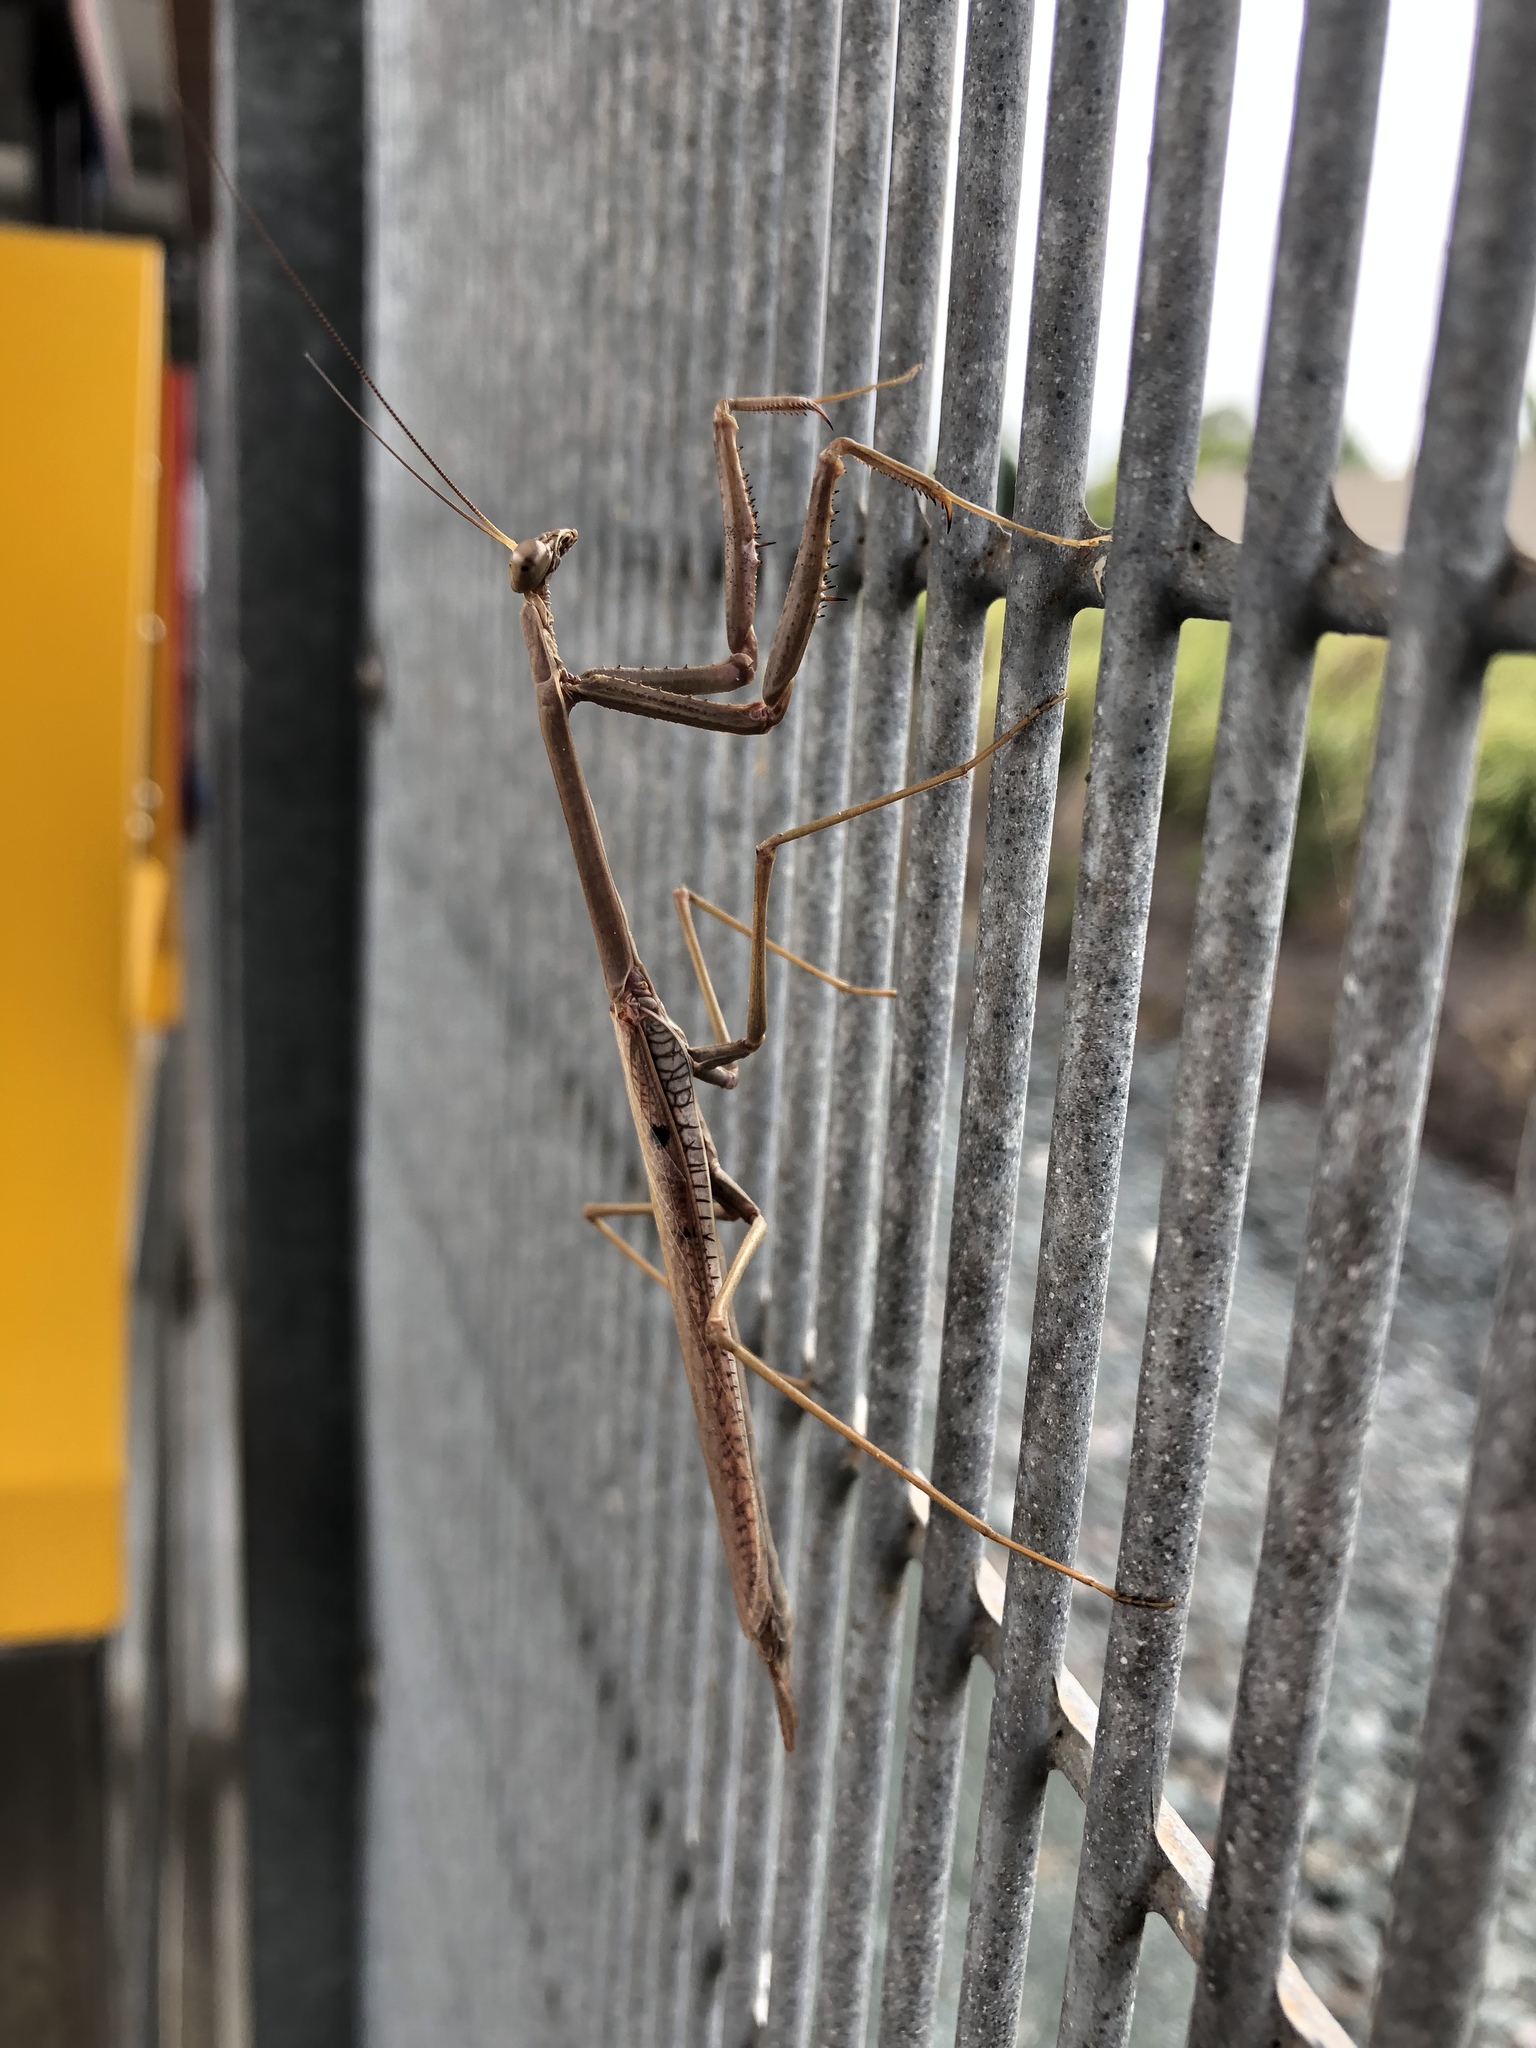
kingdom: Animalia
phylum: Arthropoda
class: Insecta
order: Mantodea
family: Mantidae
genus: Archimantis
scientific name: Archimantis latistyla
